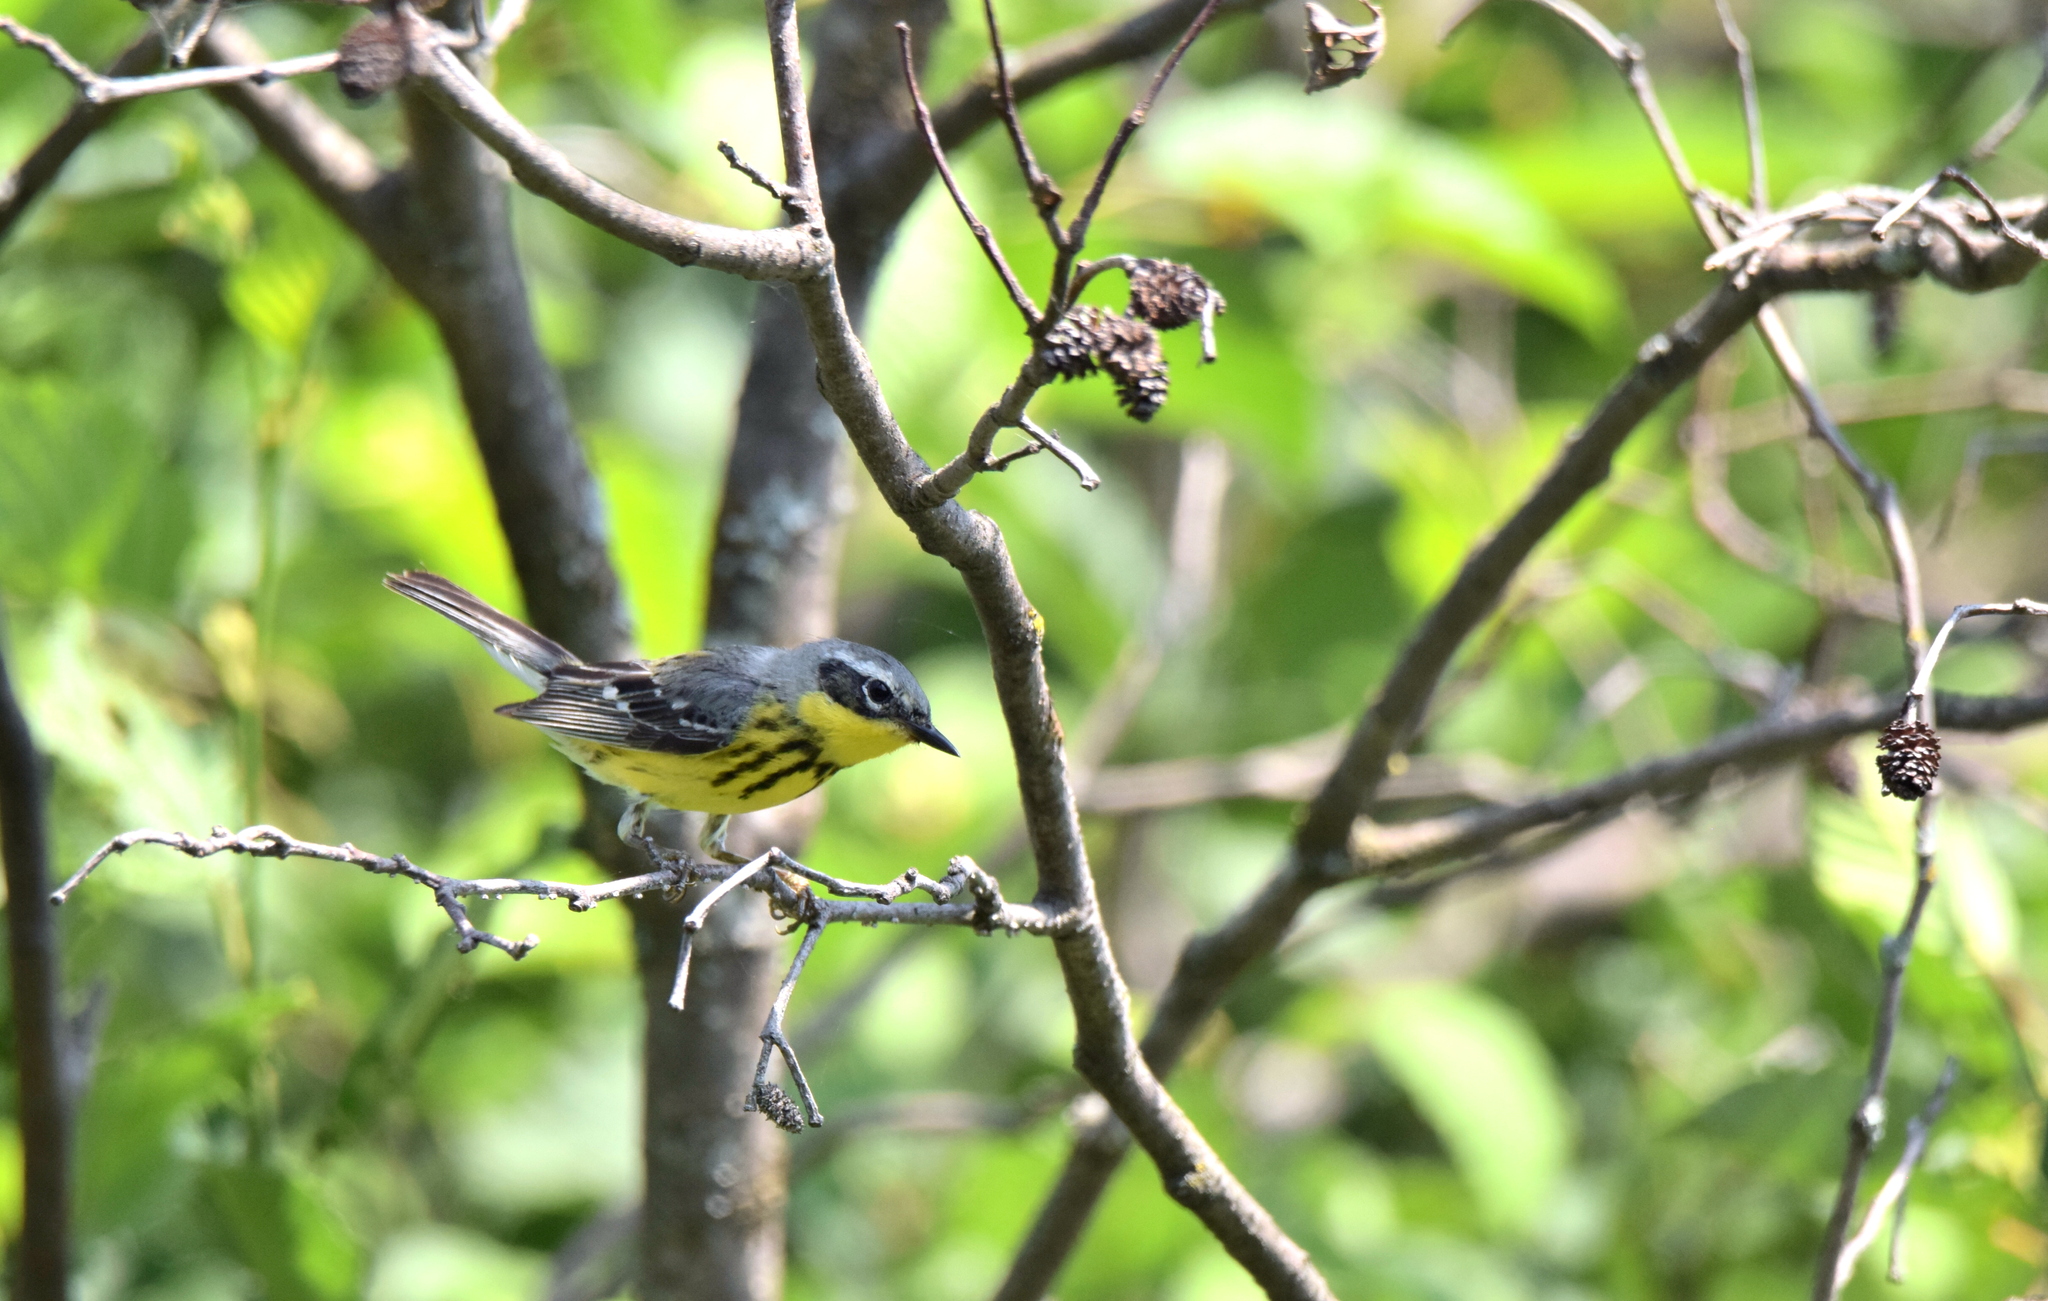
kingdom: Animalia
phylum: Chordata
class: Aves
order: Passeriformes
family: Parulidae
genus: Setophaga
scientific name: Setophaga magnolia
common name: Magnolia warbler
